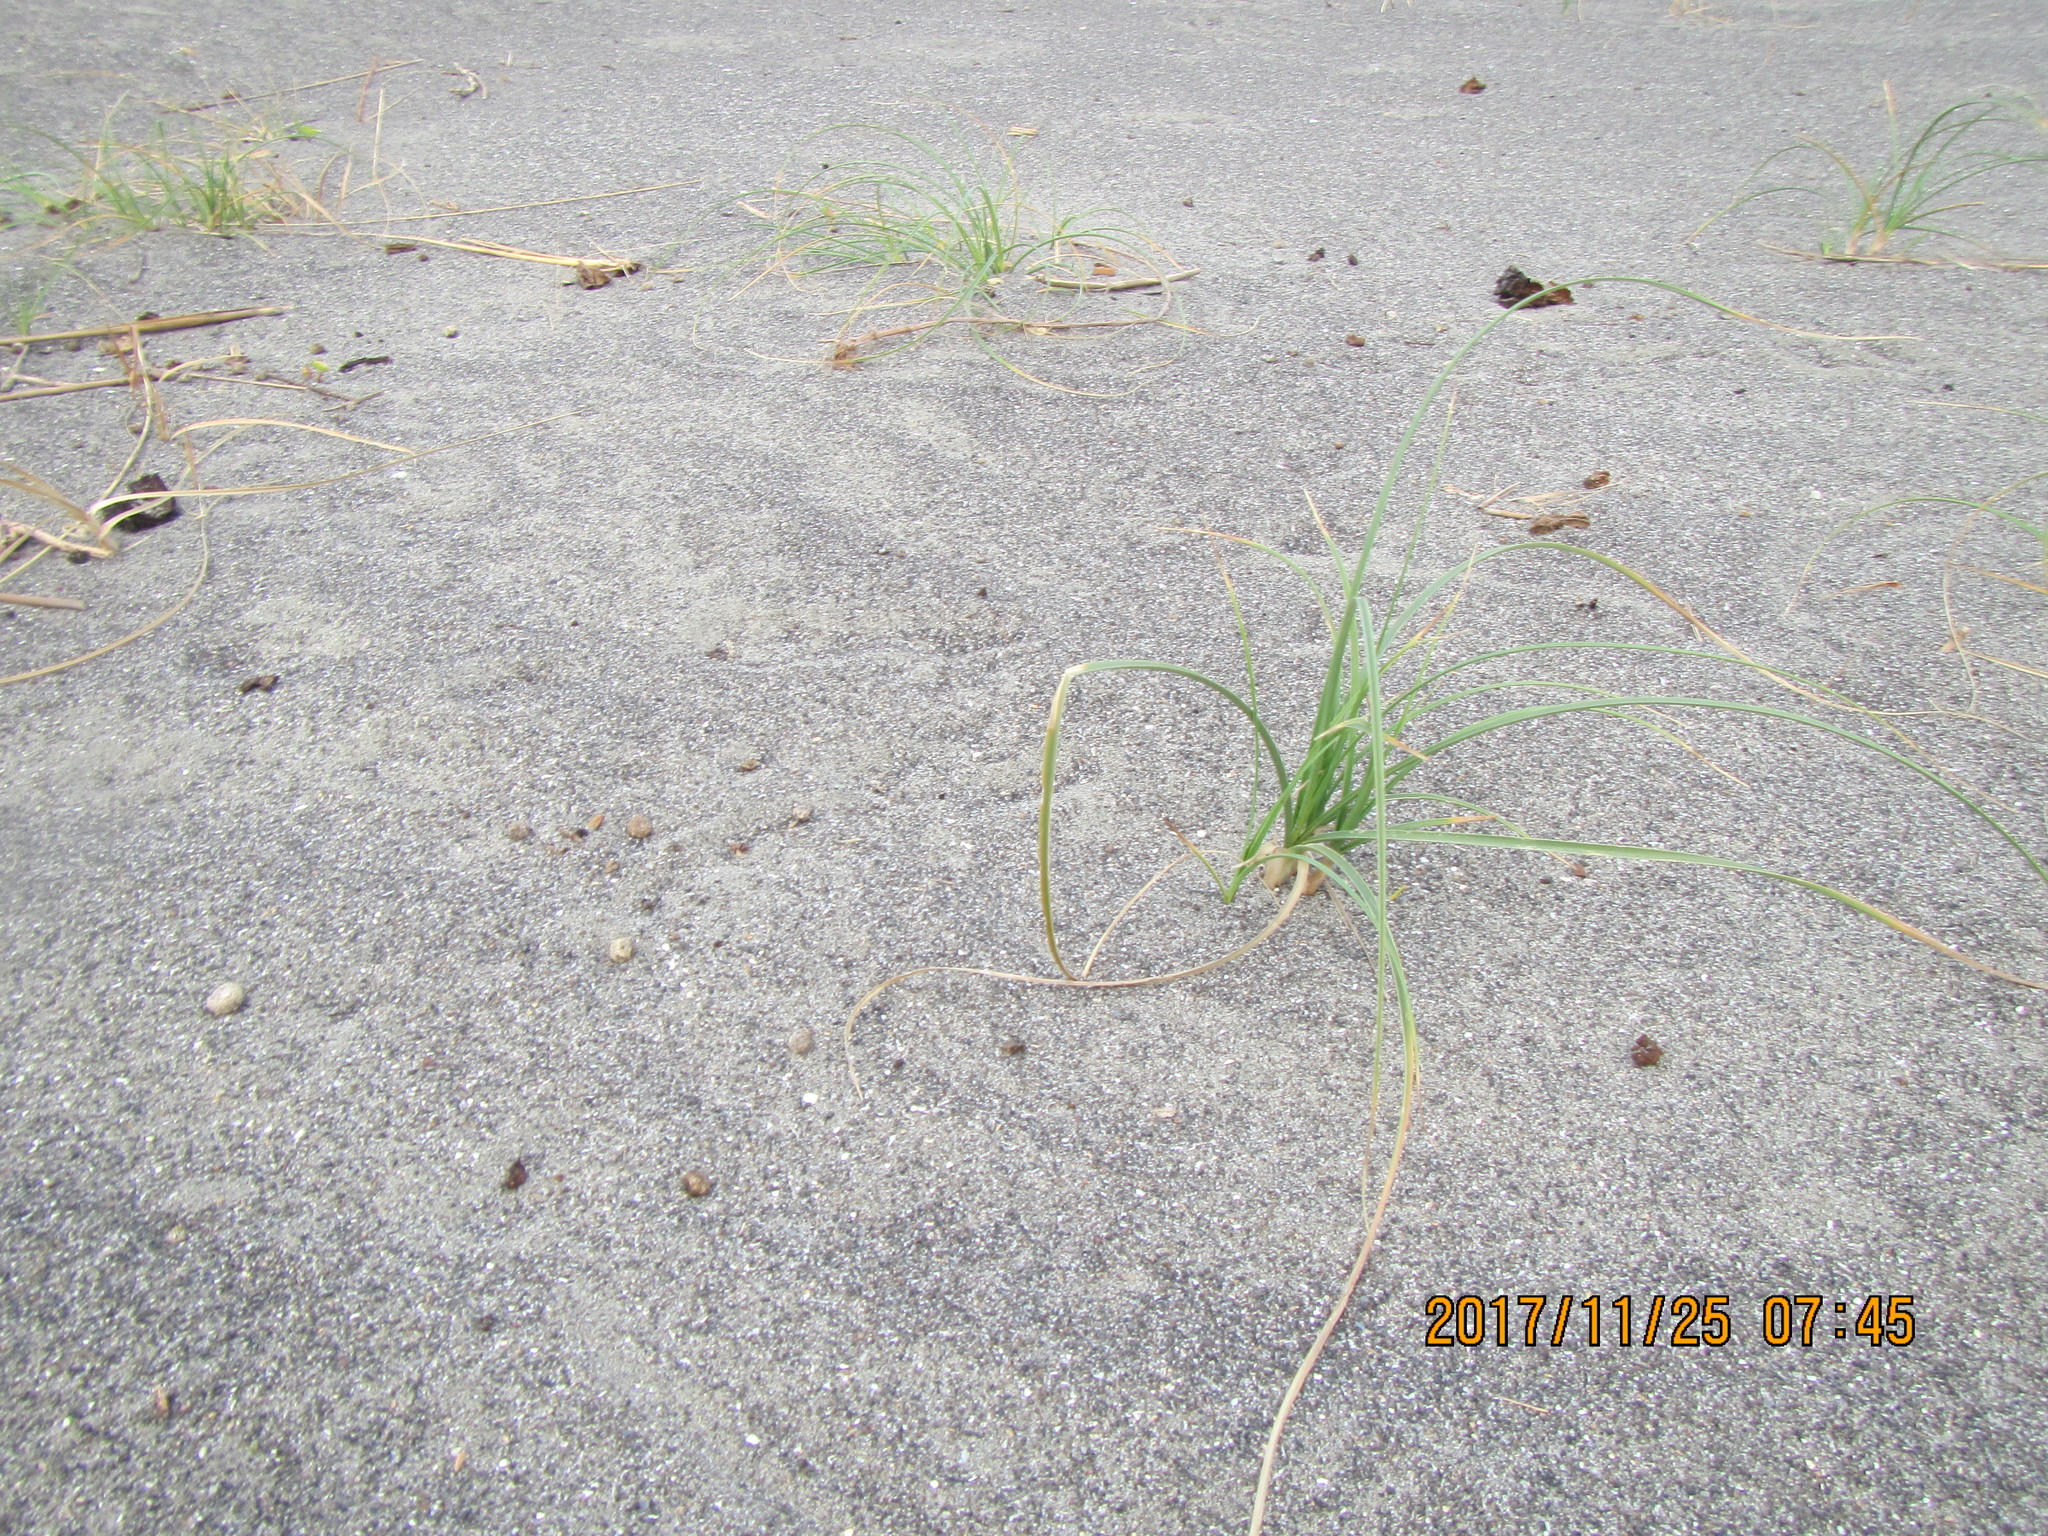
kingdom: Plantae
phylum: Tracheophyta
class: Liliopsida
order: Poales
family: Cyperaceae
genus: Carex
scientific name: Carex pumila
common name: Dwarf sedge
